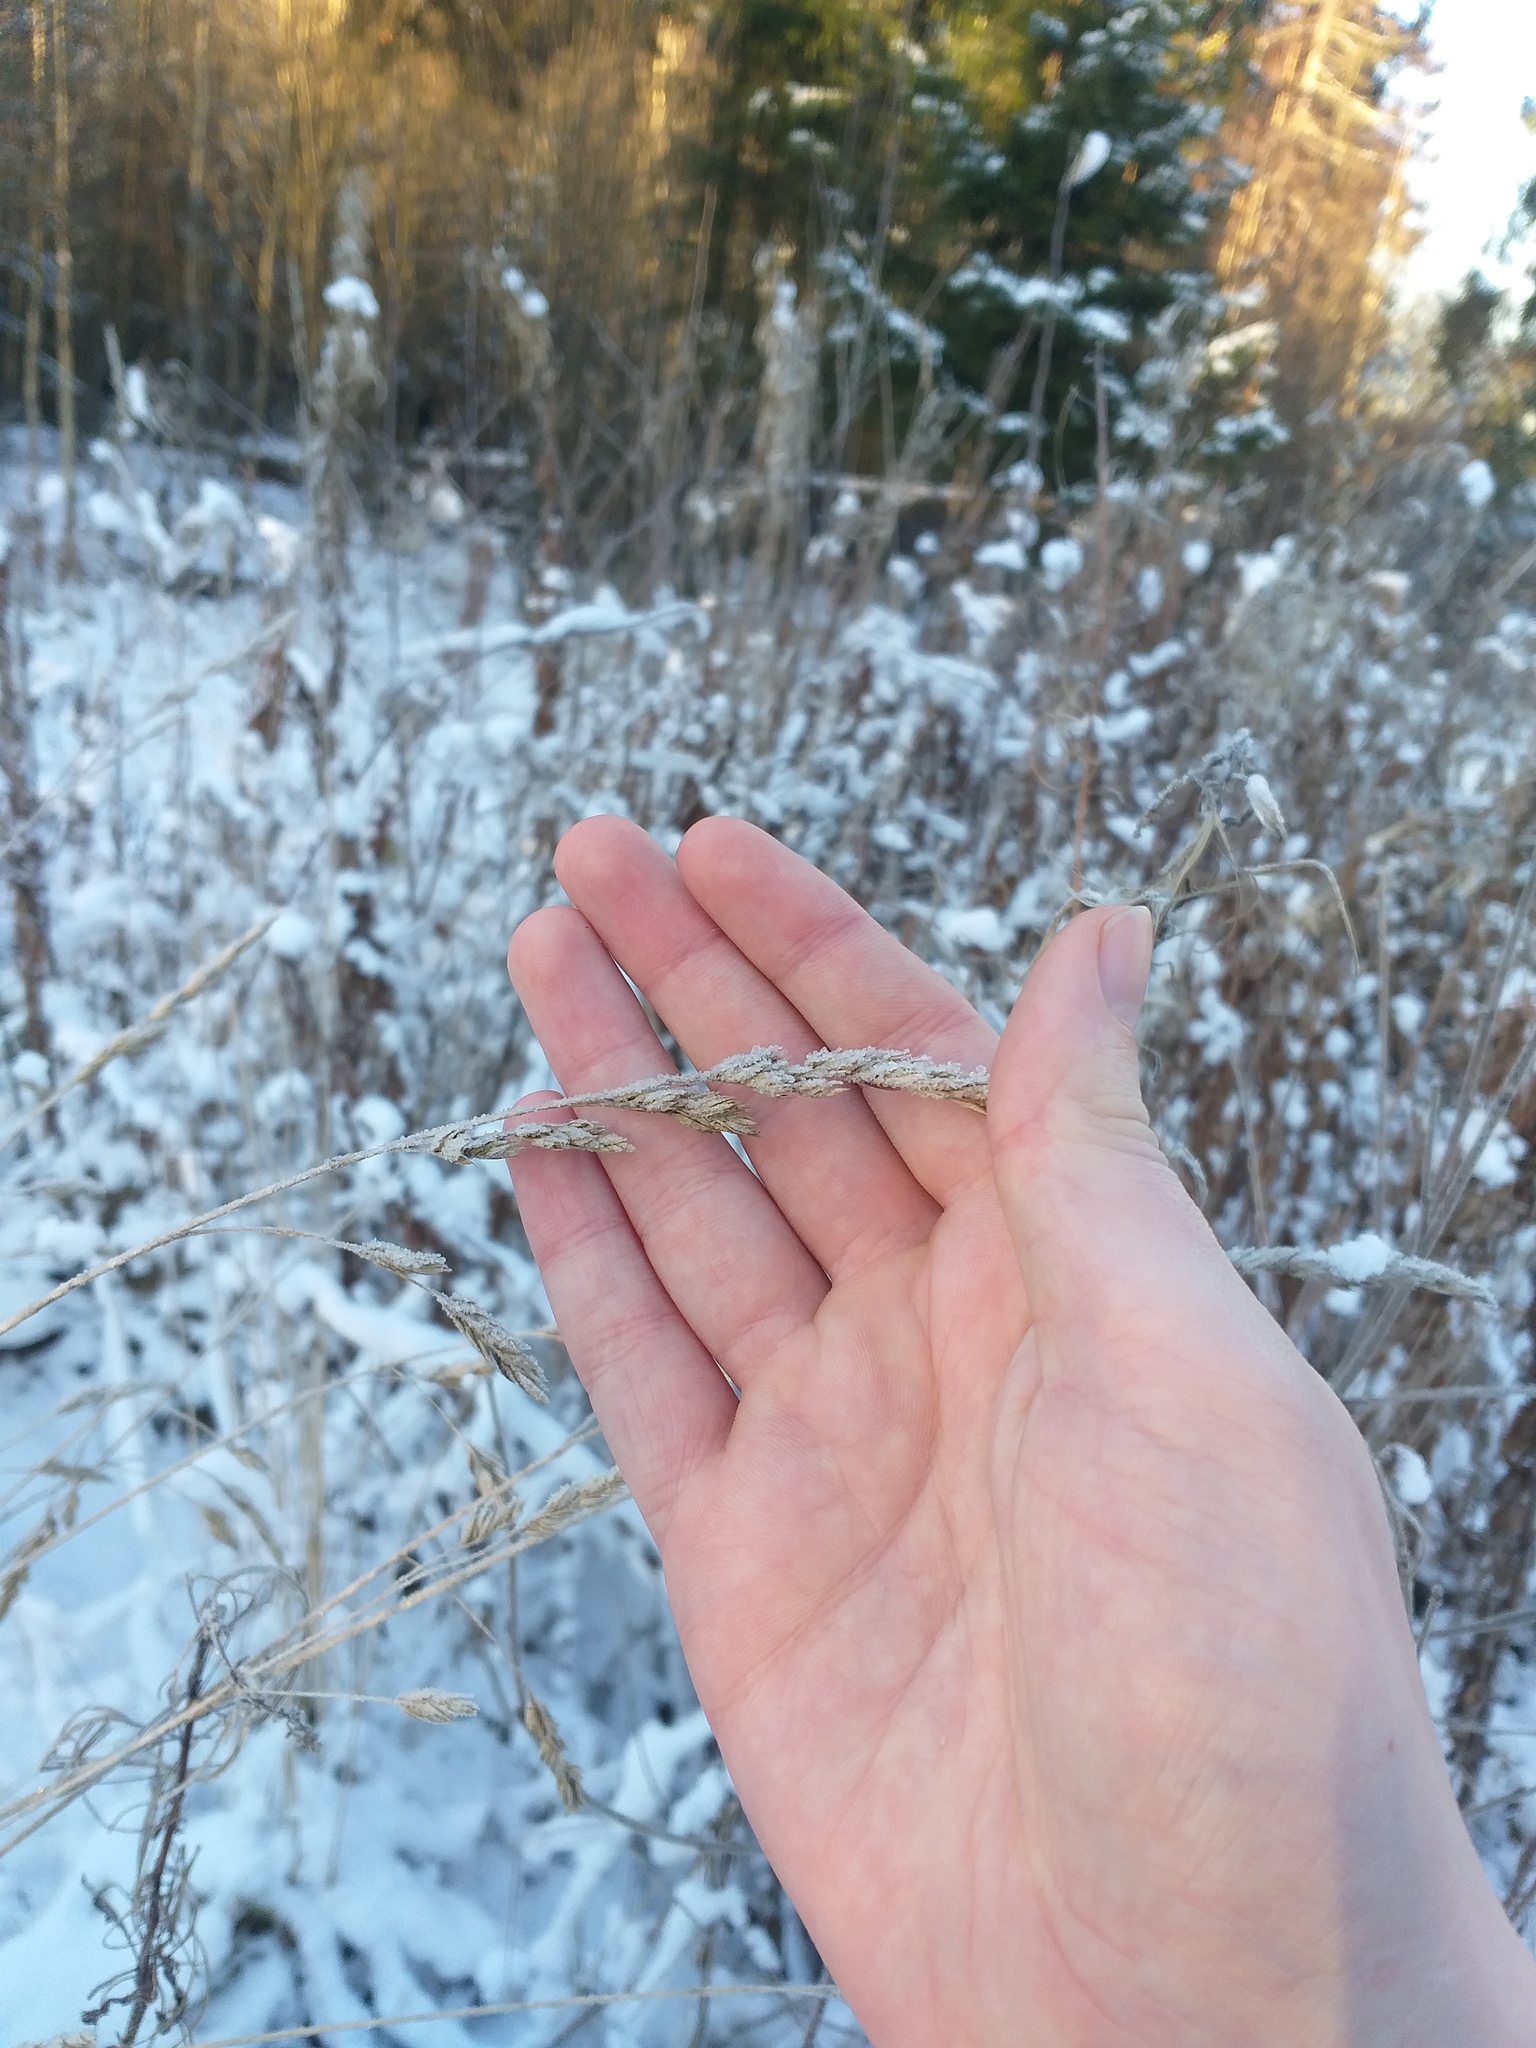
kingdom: Plantae
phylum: Tracheophyta
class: Liliopsida
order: Poales
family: Poaceae
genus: Dactylis
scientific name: Dactylis glomerata
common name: Orchardgrass
